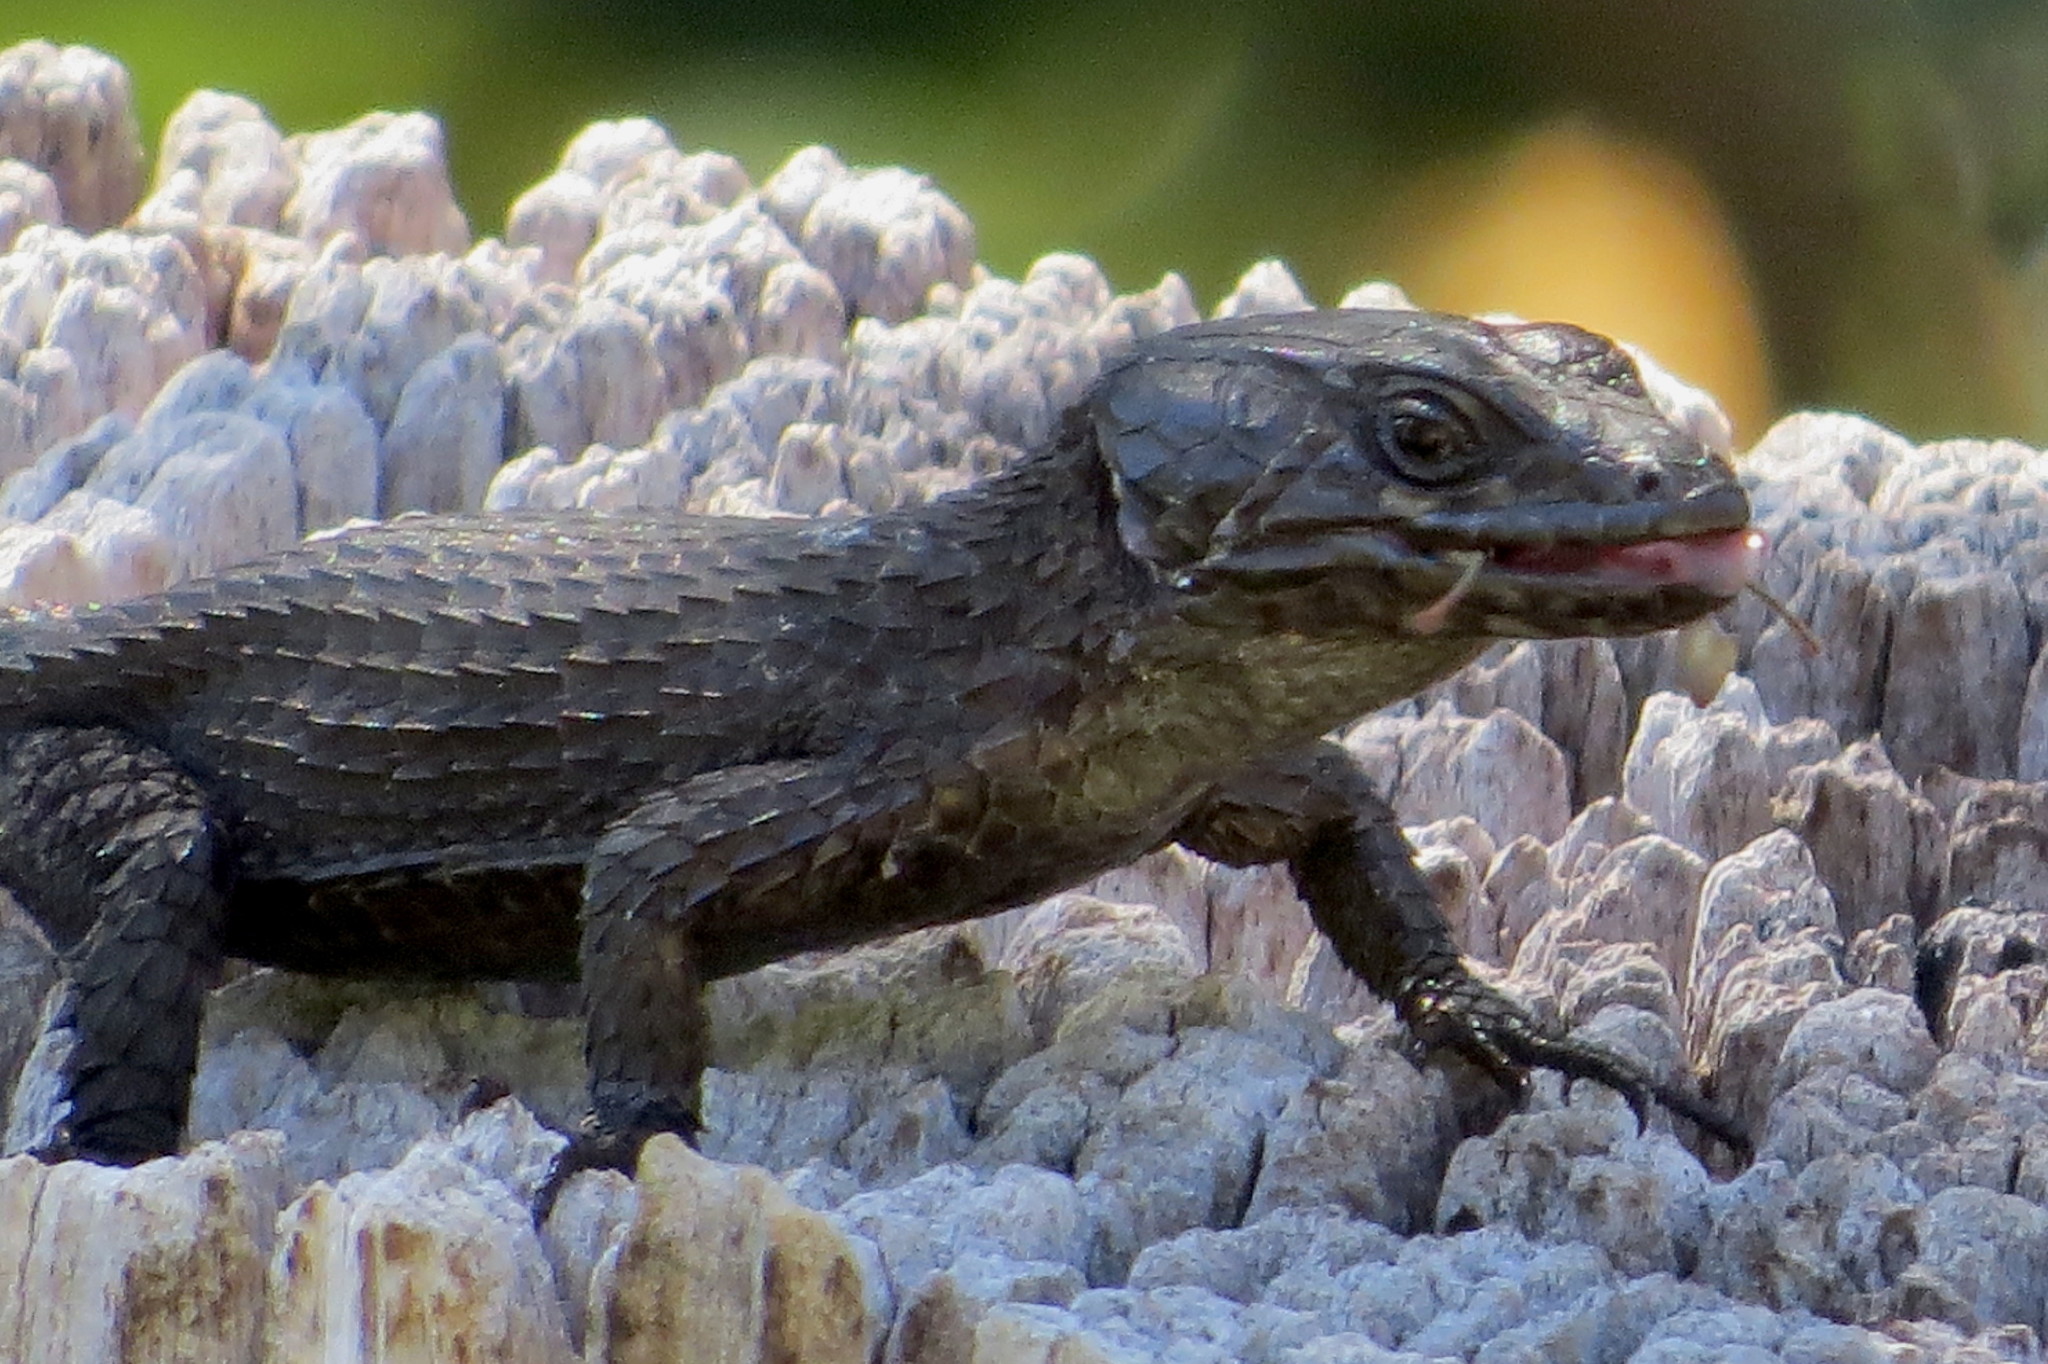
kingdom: Animalia
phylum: Chordata
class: Squamata
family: Cordylidae
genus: Cordylus
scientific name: Cordylus niger
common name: Black girdled lizard
